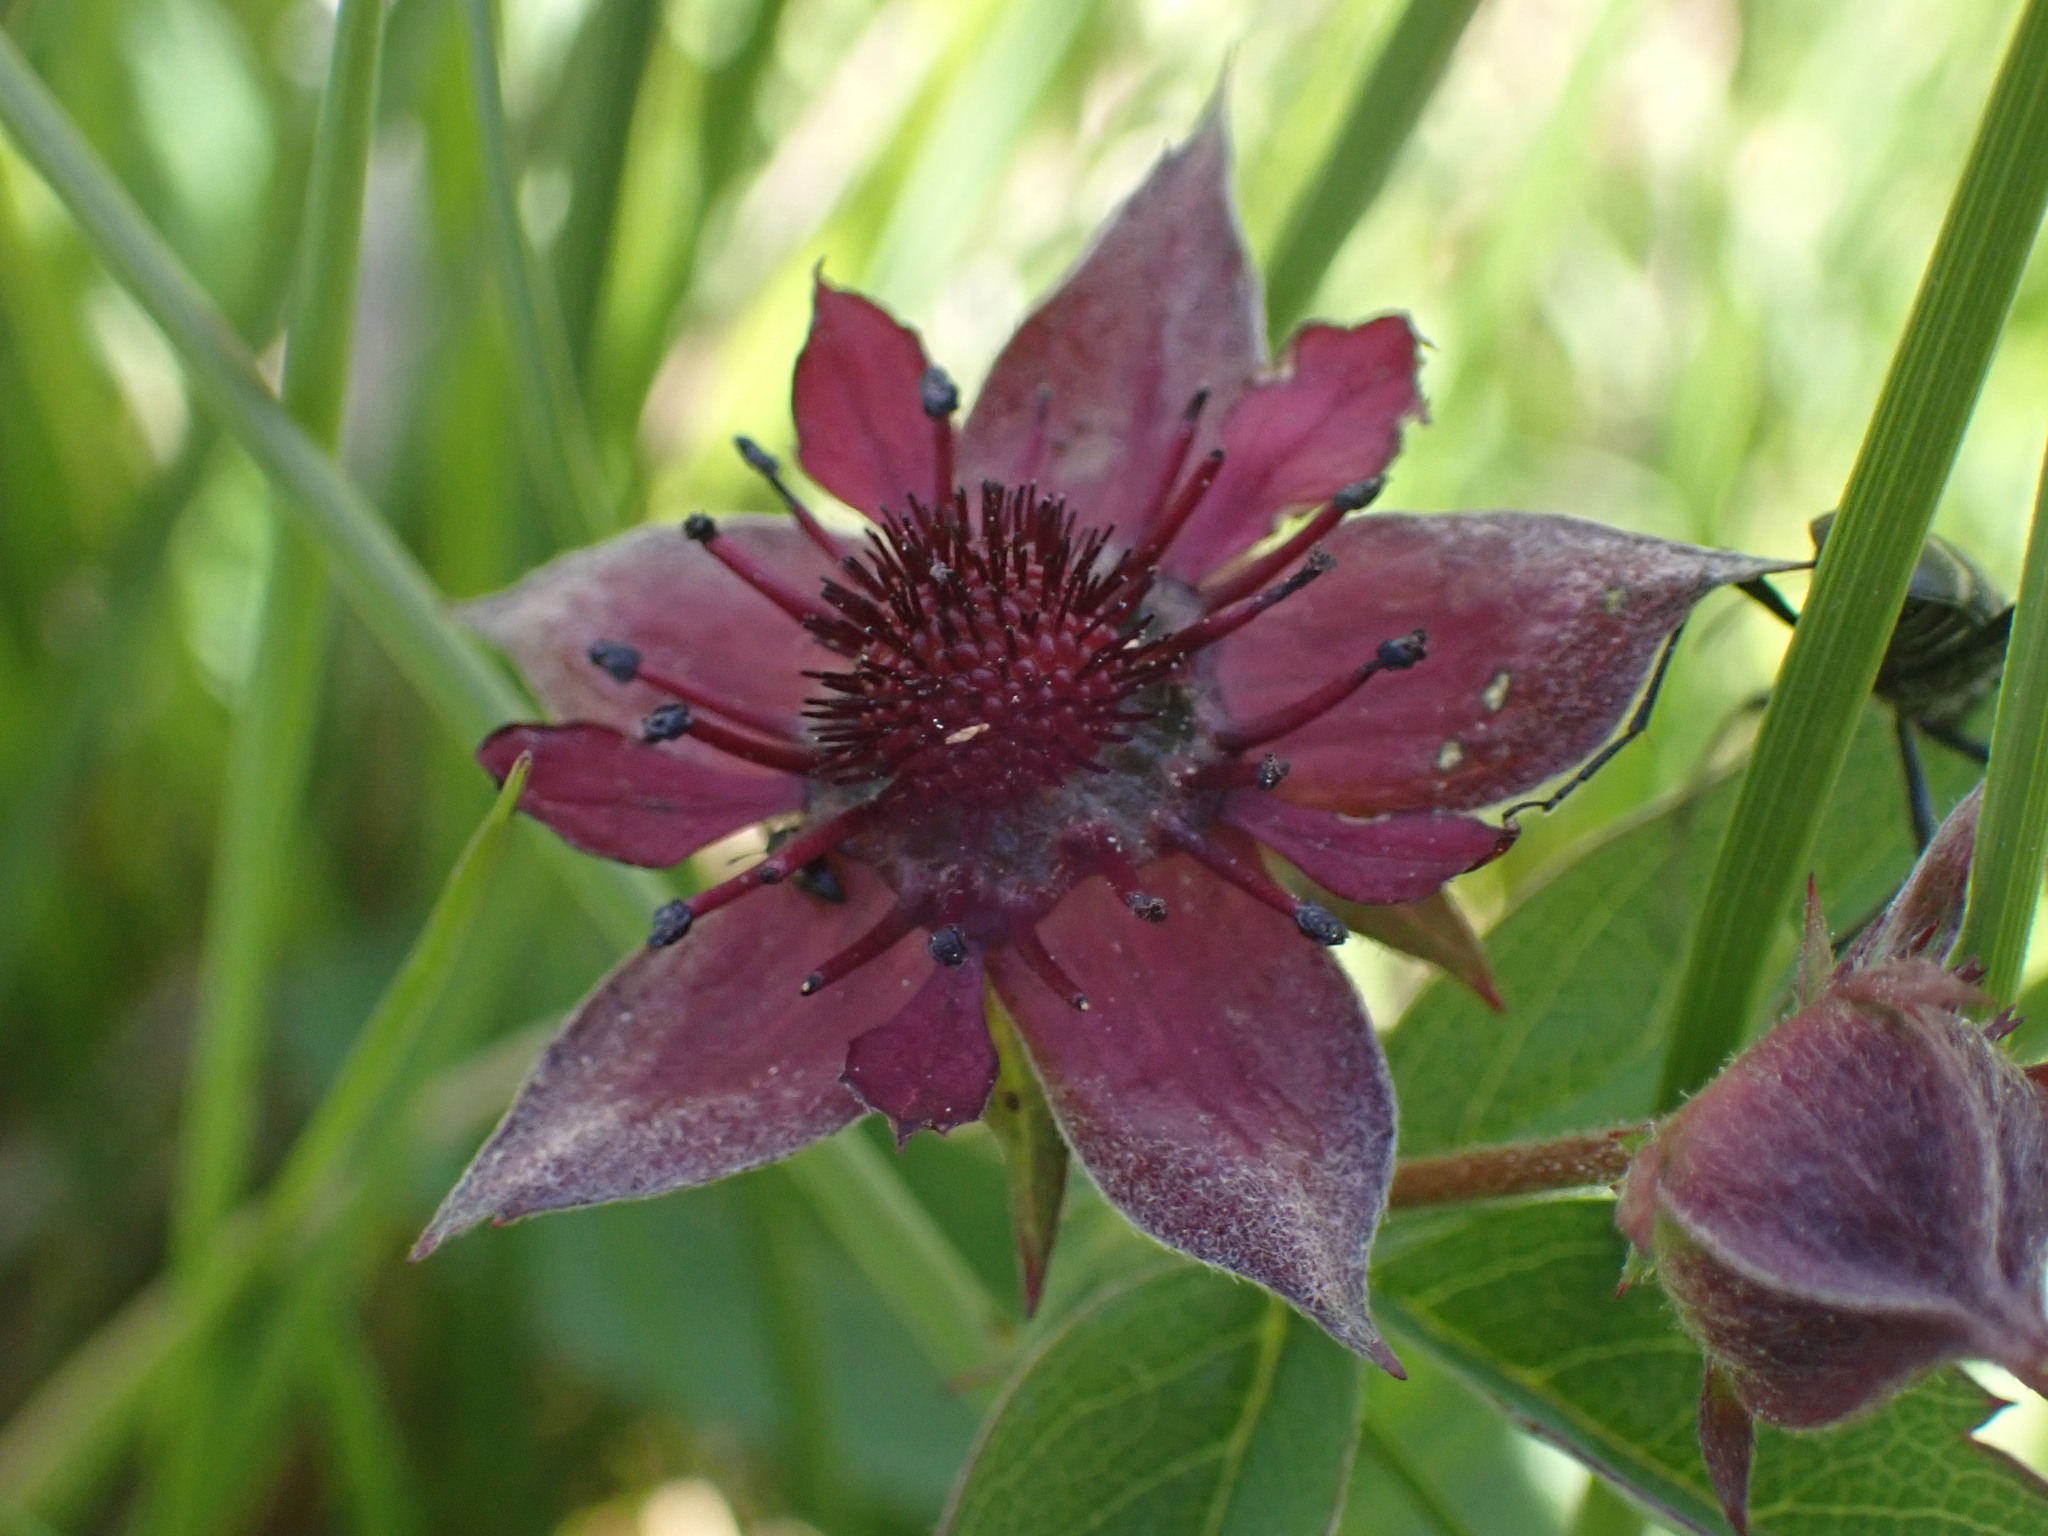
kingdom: Plantae
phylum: Tracheophyta
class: Magnoliopsida
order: Rosales
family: Rosaceae
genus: Comarum
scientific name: Comarum palustre
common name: Marsh cinquefoil
